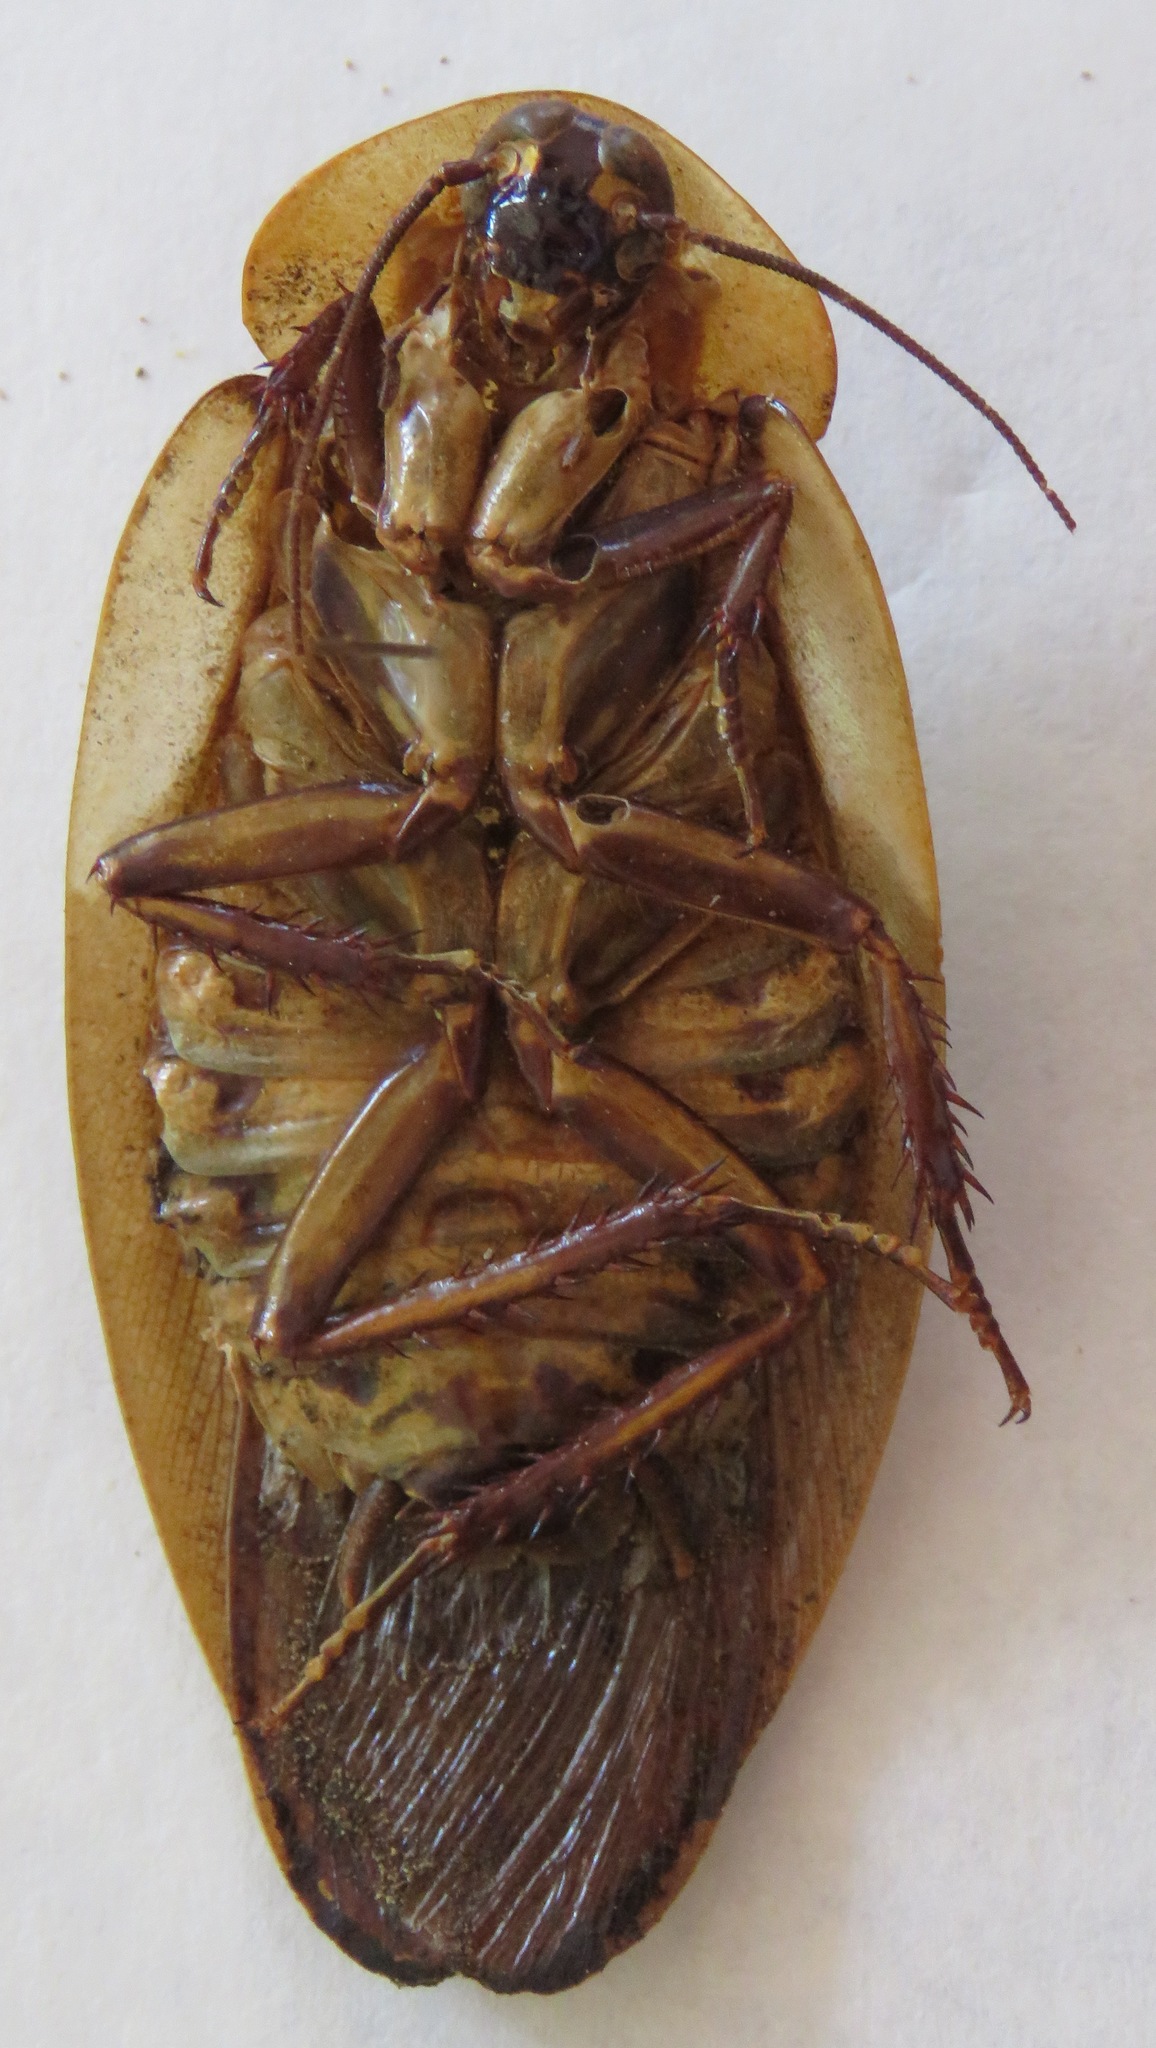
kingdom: Animalia
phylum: Arthropoda
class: Insecta
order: Blattodea
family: Blaberidae
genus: Blaberus
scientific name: Blaberus craniifer
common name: Death's head cockroach
